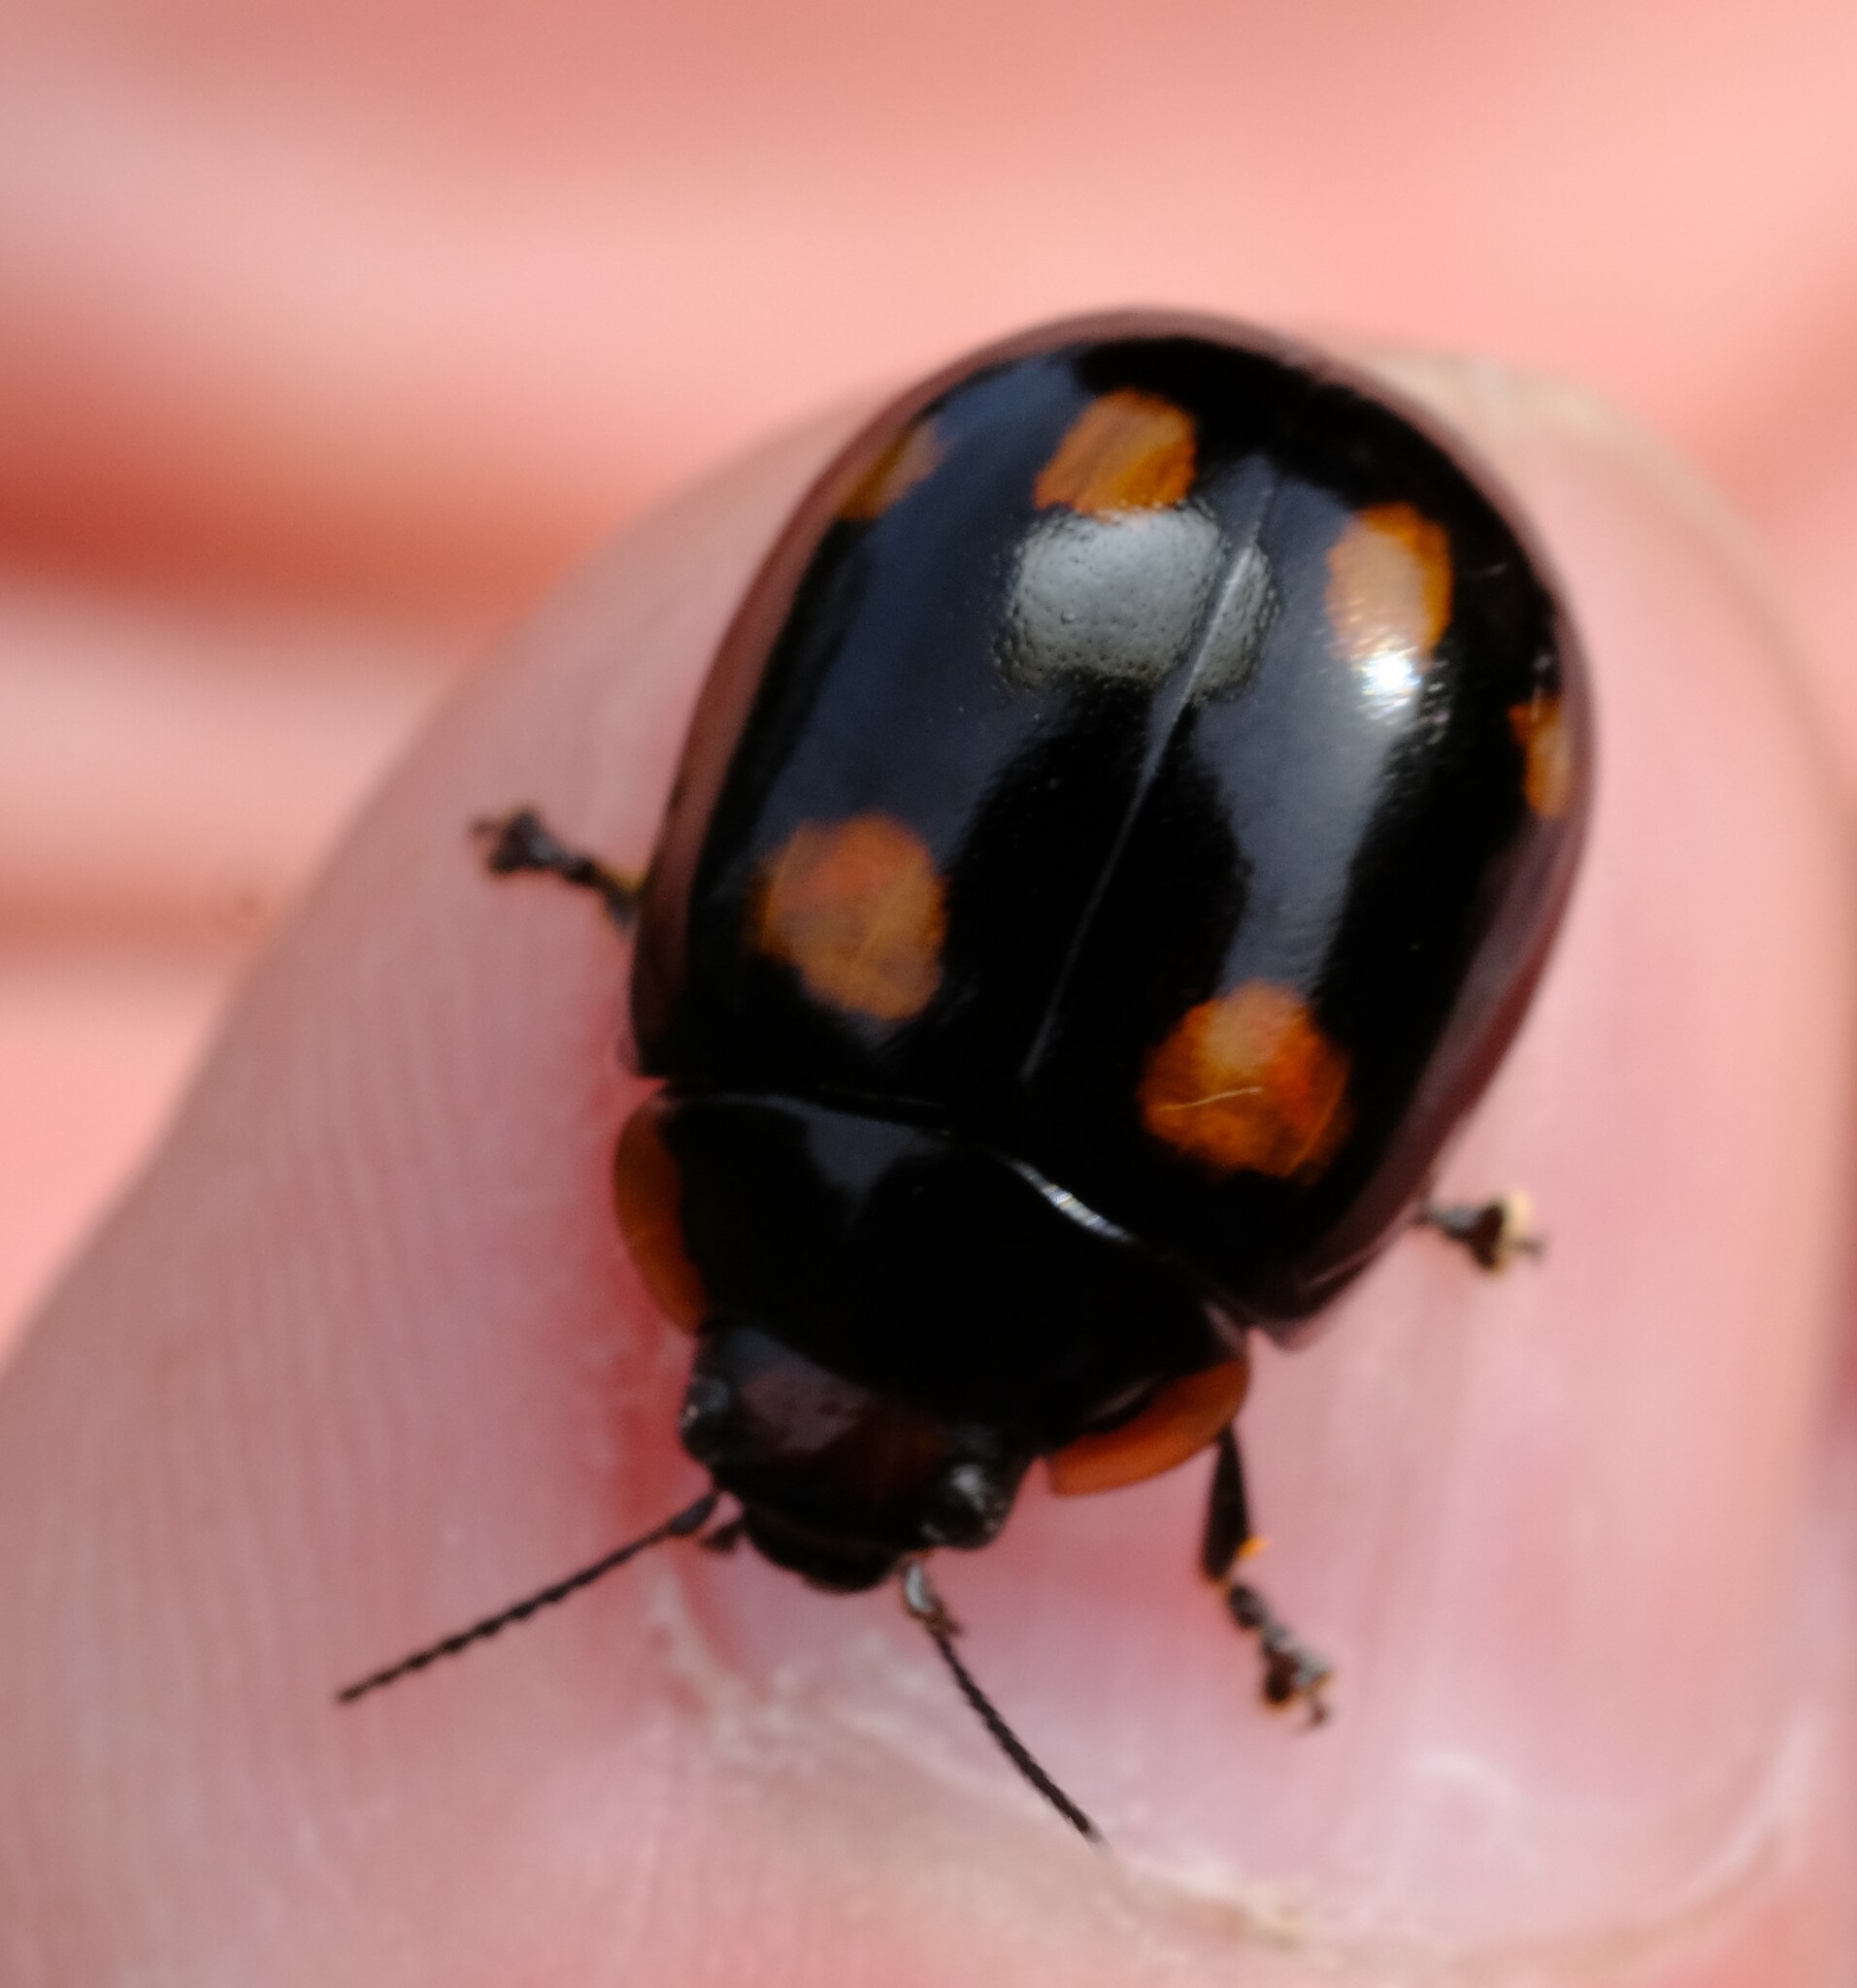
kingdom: Animalia
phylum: Arthropoda
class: Insecta
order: Coleoptera
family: Chrysomelidae
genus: Paropsisterna
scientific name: Paropsisterna beata
